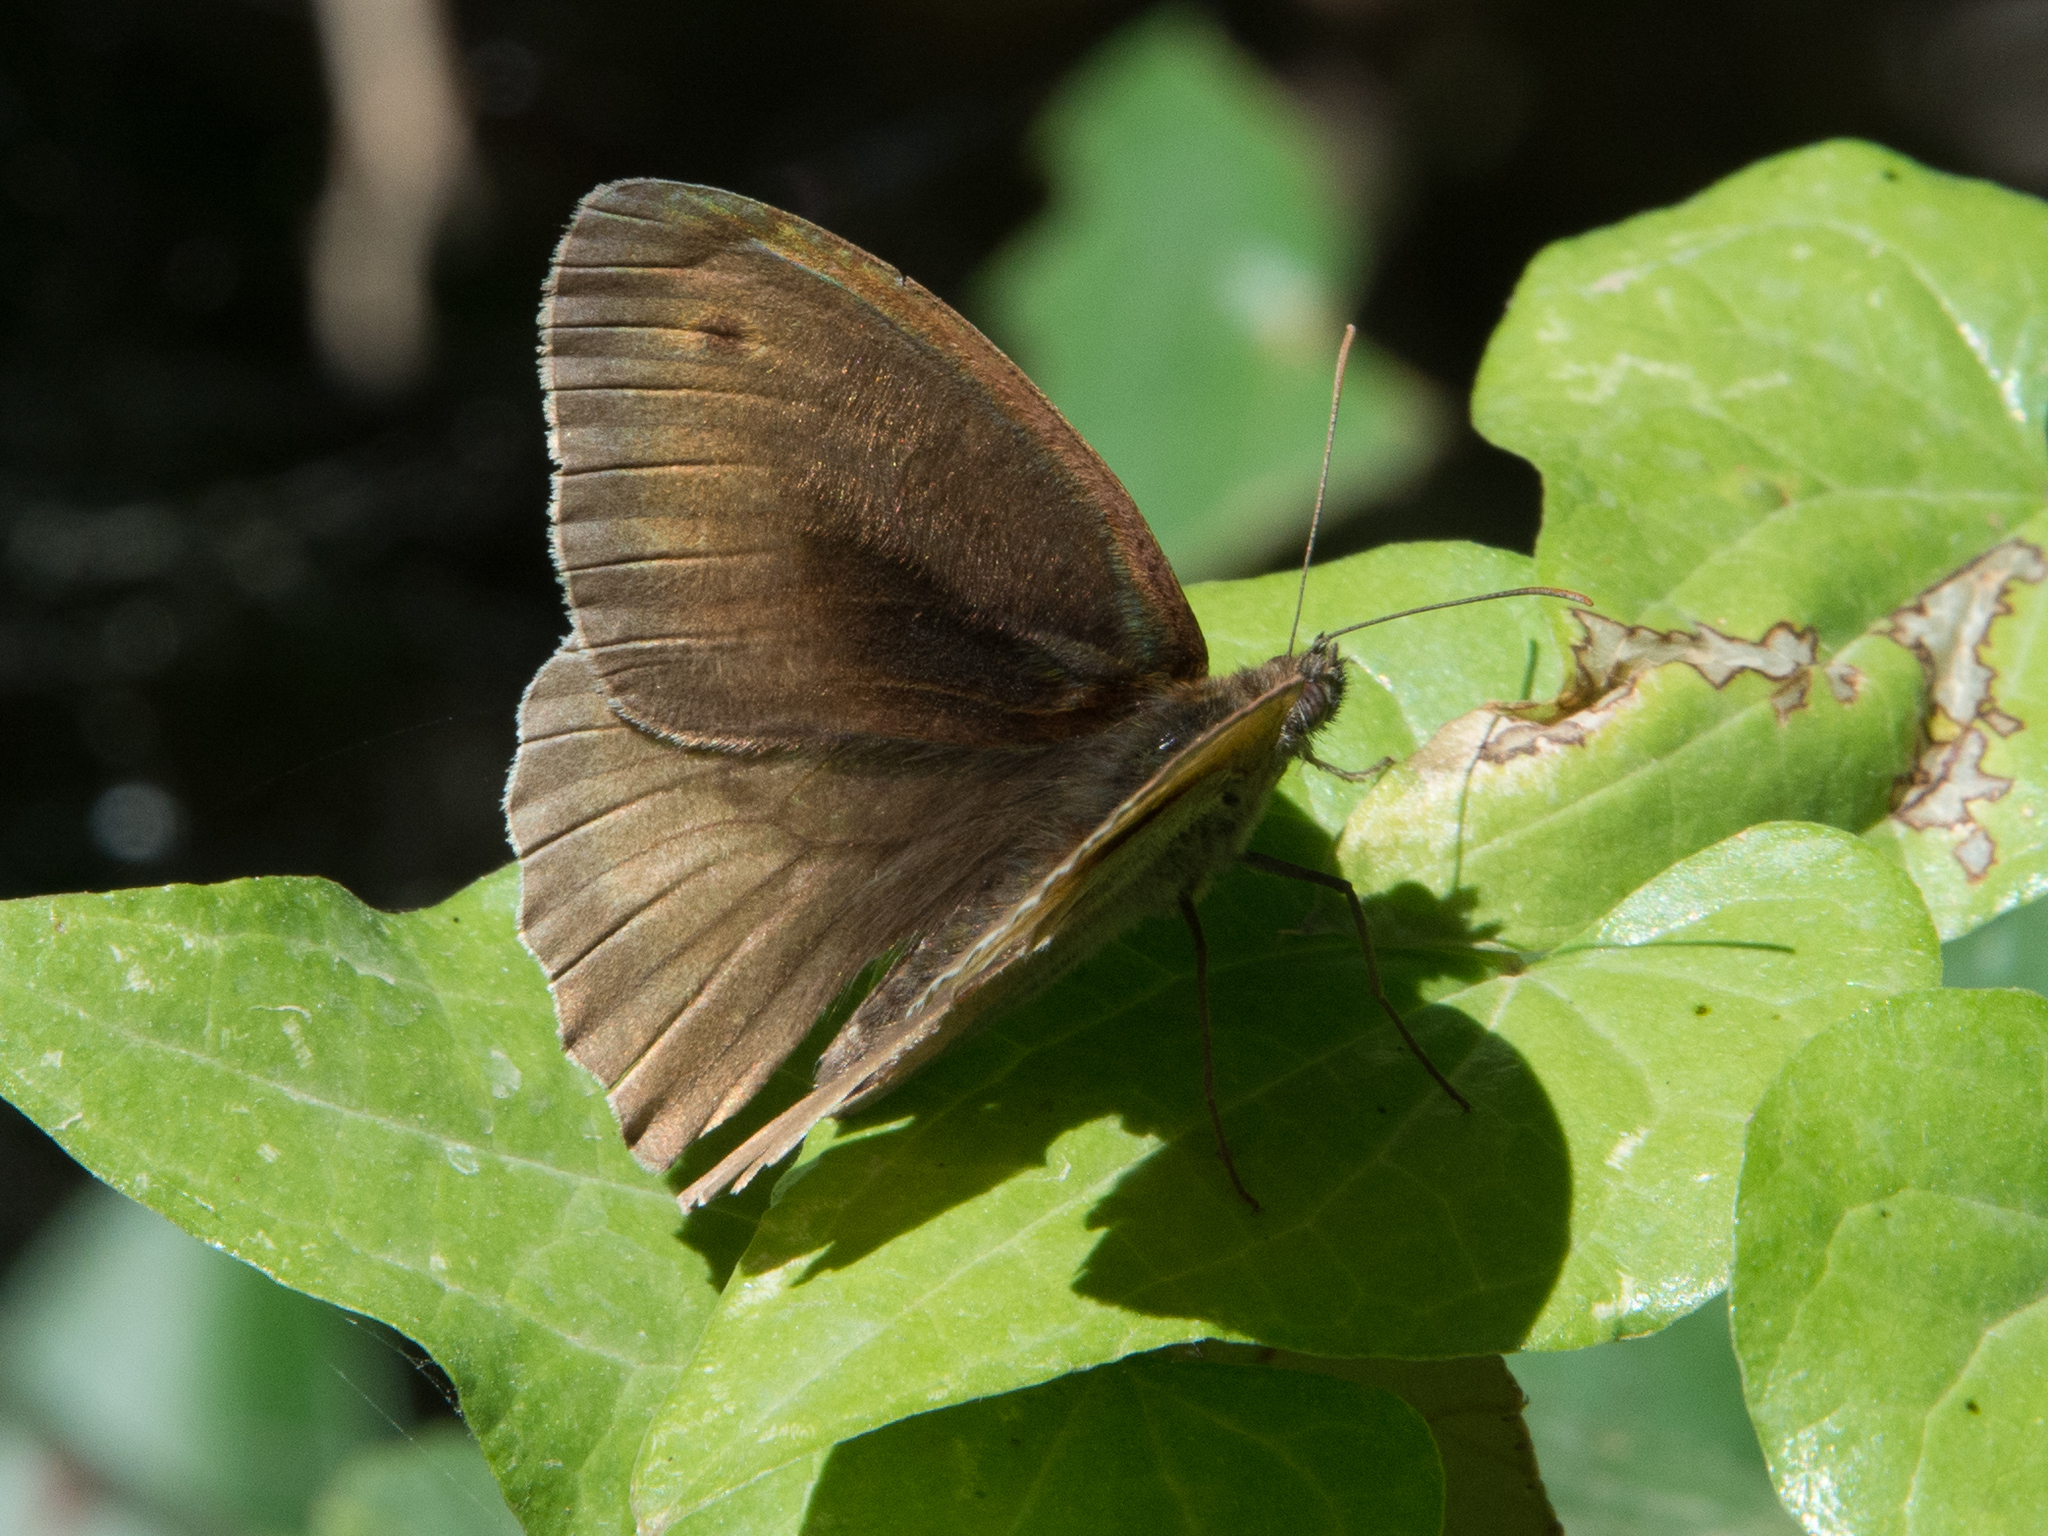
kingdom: Animalia
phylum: Arthropoda
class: Insecta
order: Lepidoptera
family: Nymphalidae
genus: Maniola
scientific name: Maniola jurtina
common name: Meadow brown
